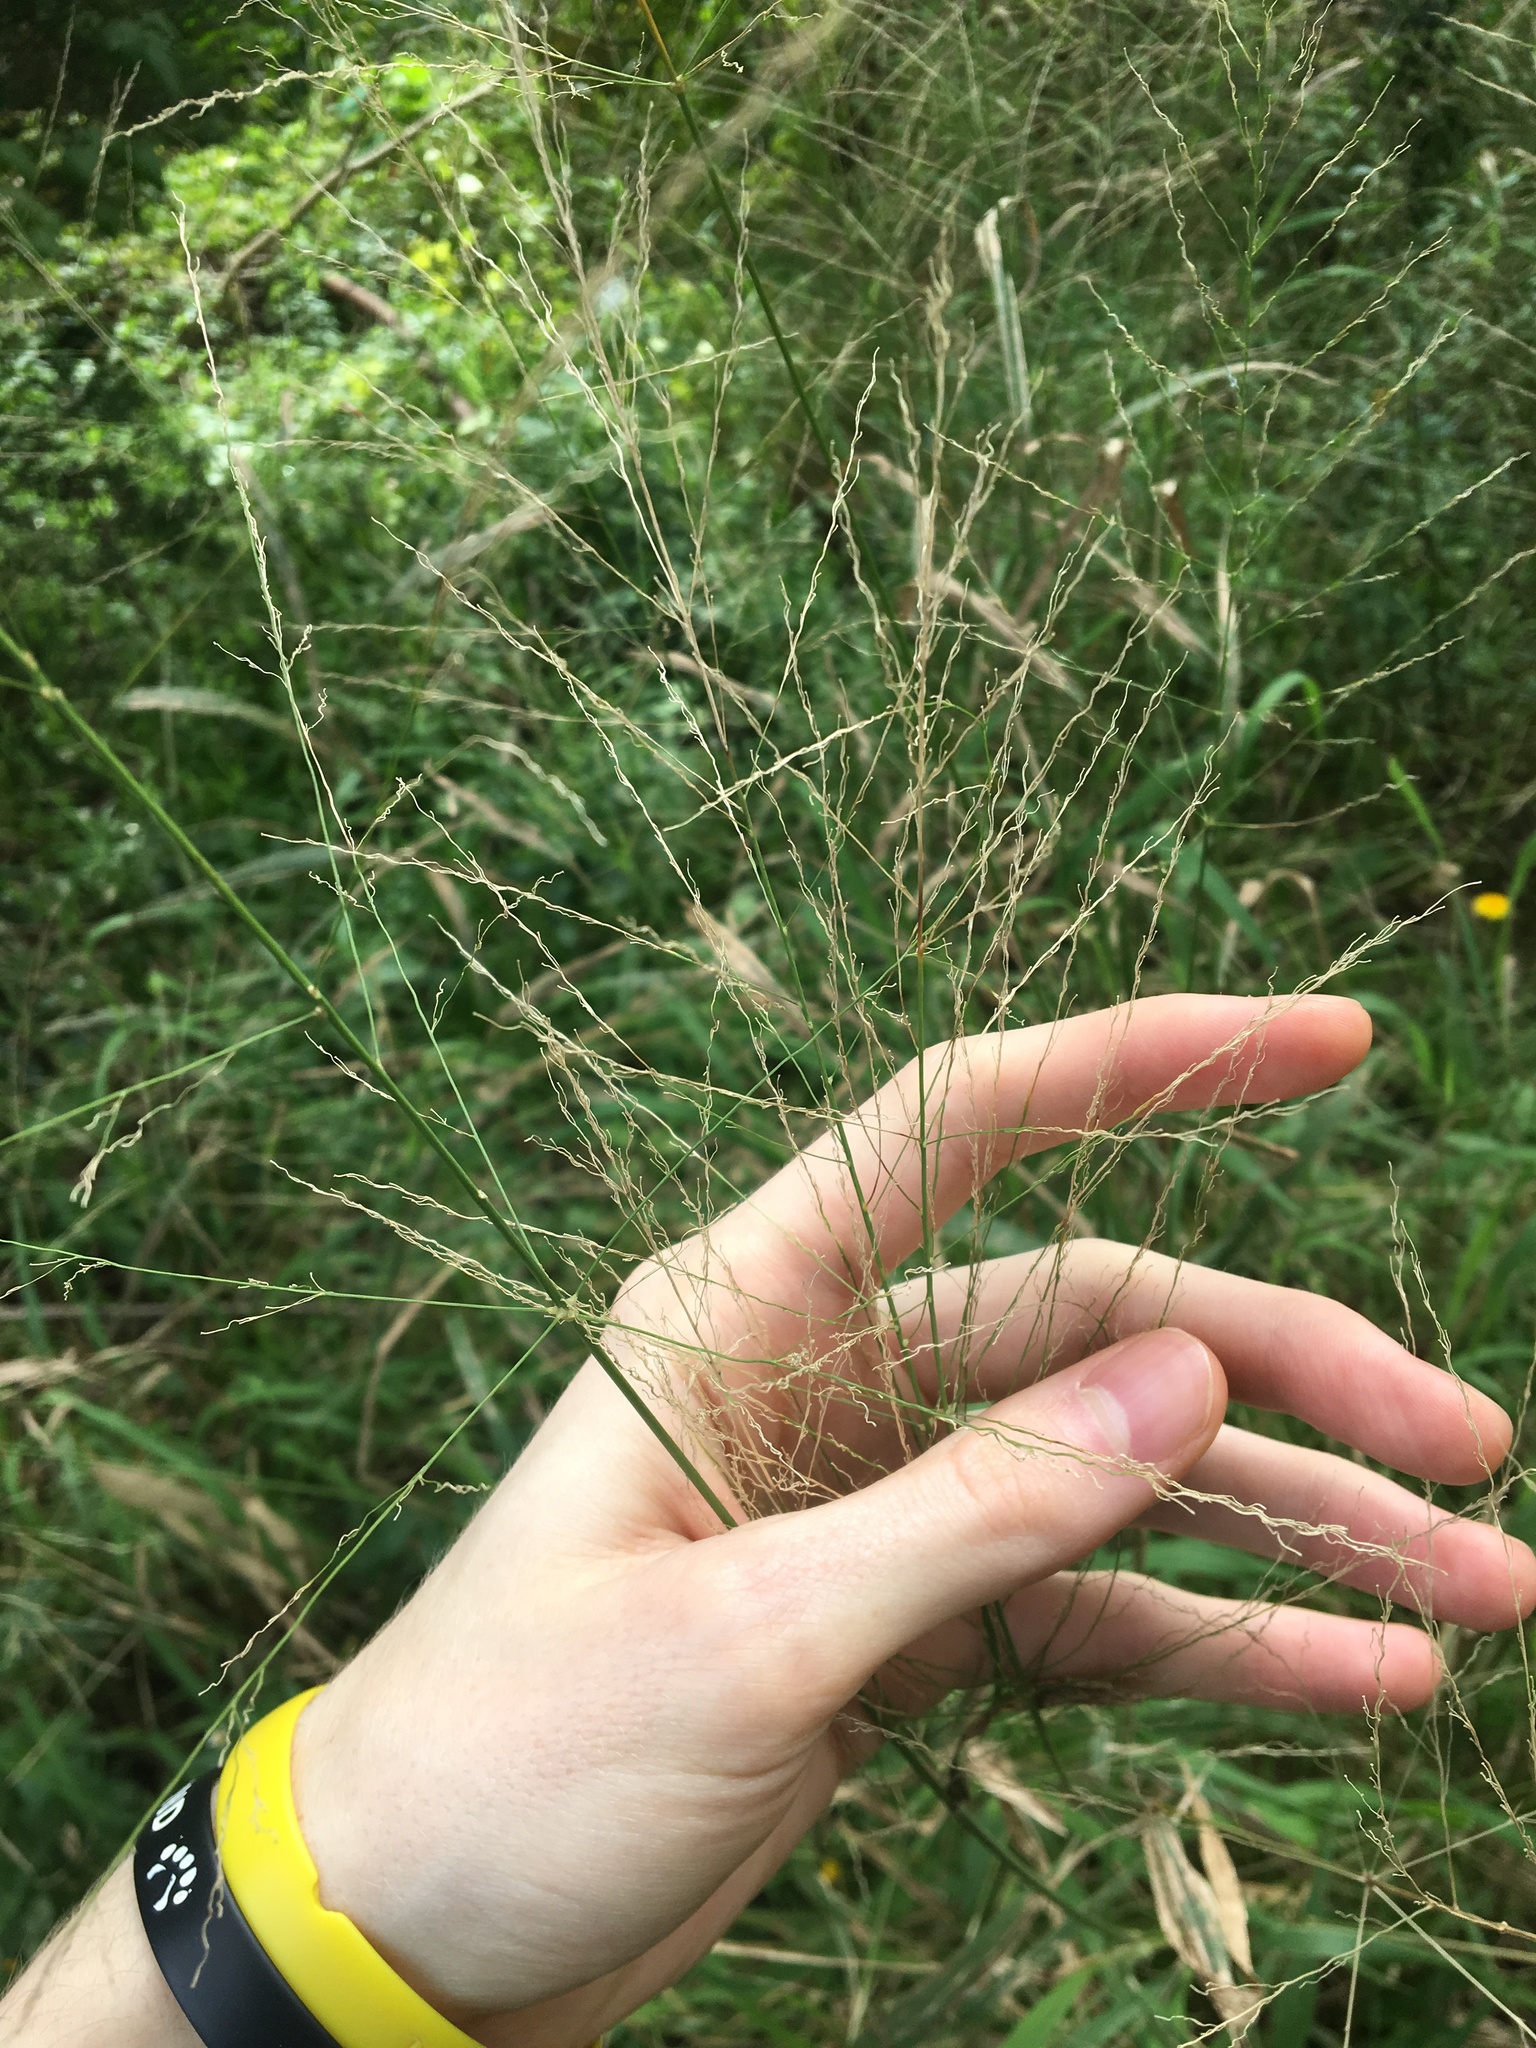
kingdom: Plantae
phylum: Tracheophyta
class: Liliopsida
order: Poales
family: Poaceae
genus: Megathyrsus
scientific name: Megathyrsus maximus
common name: Guineagrass
